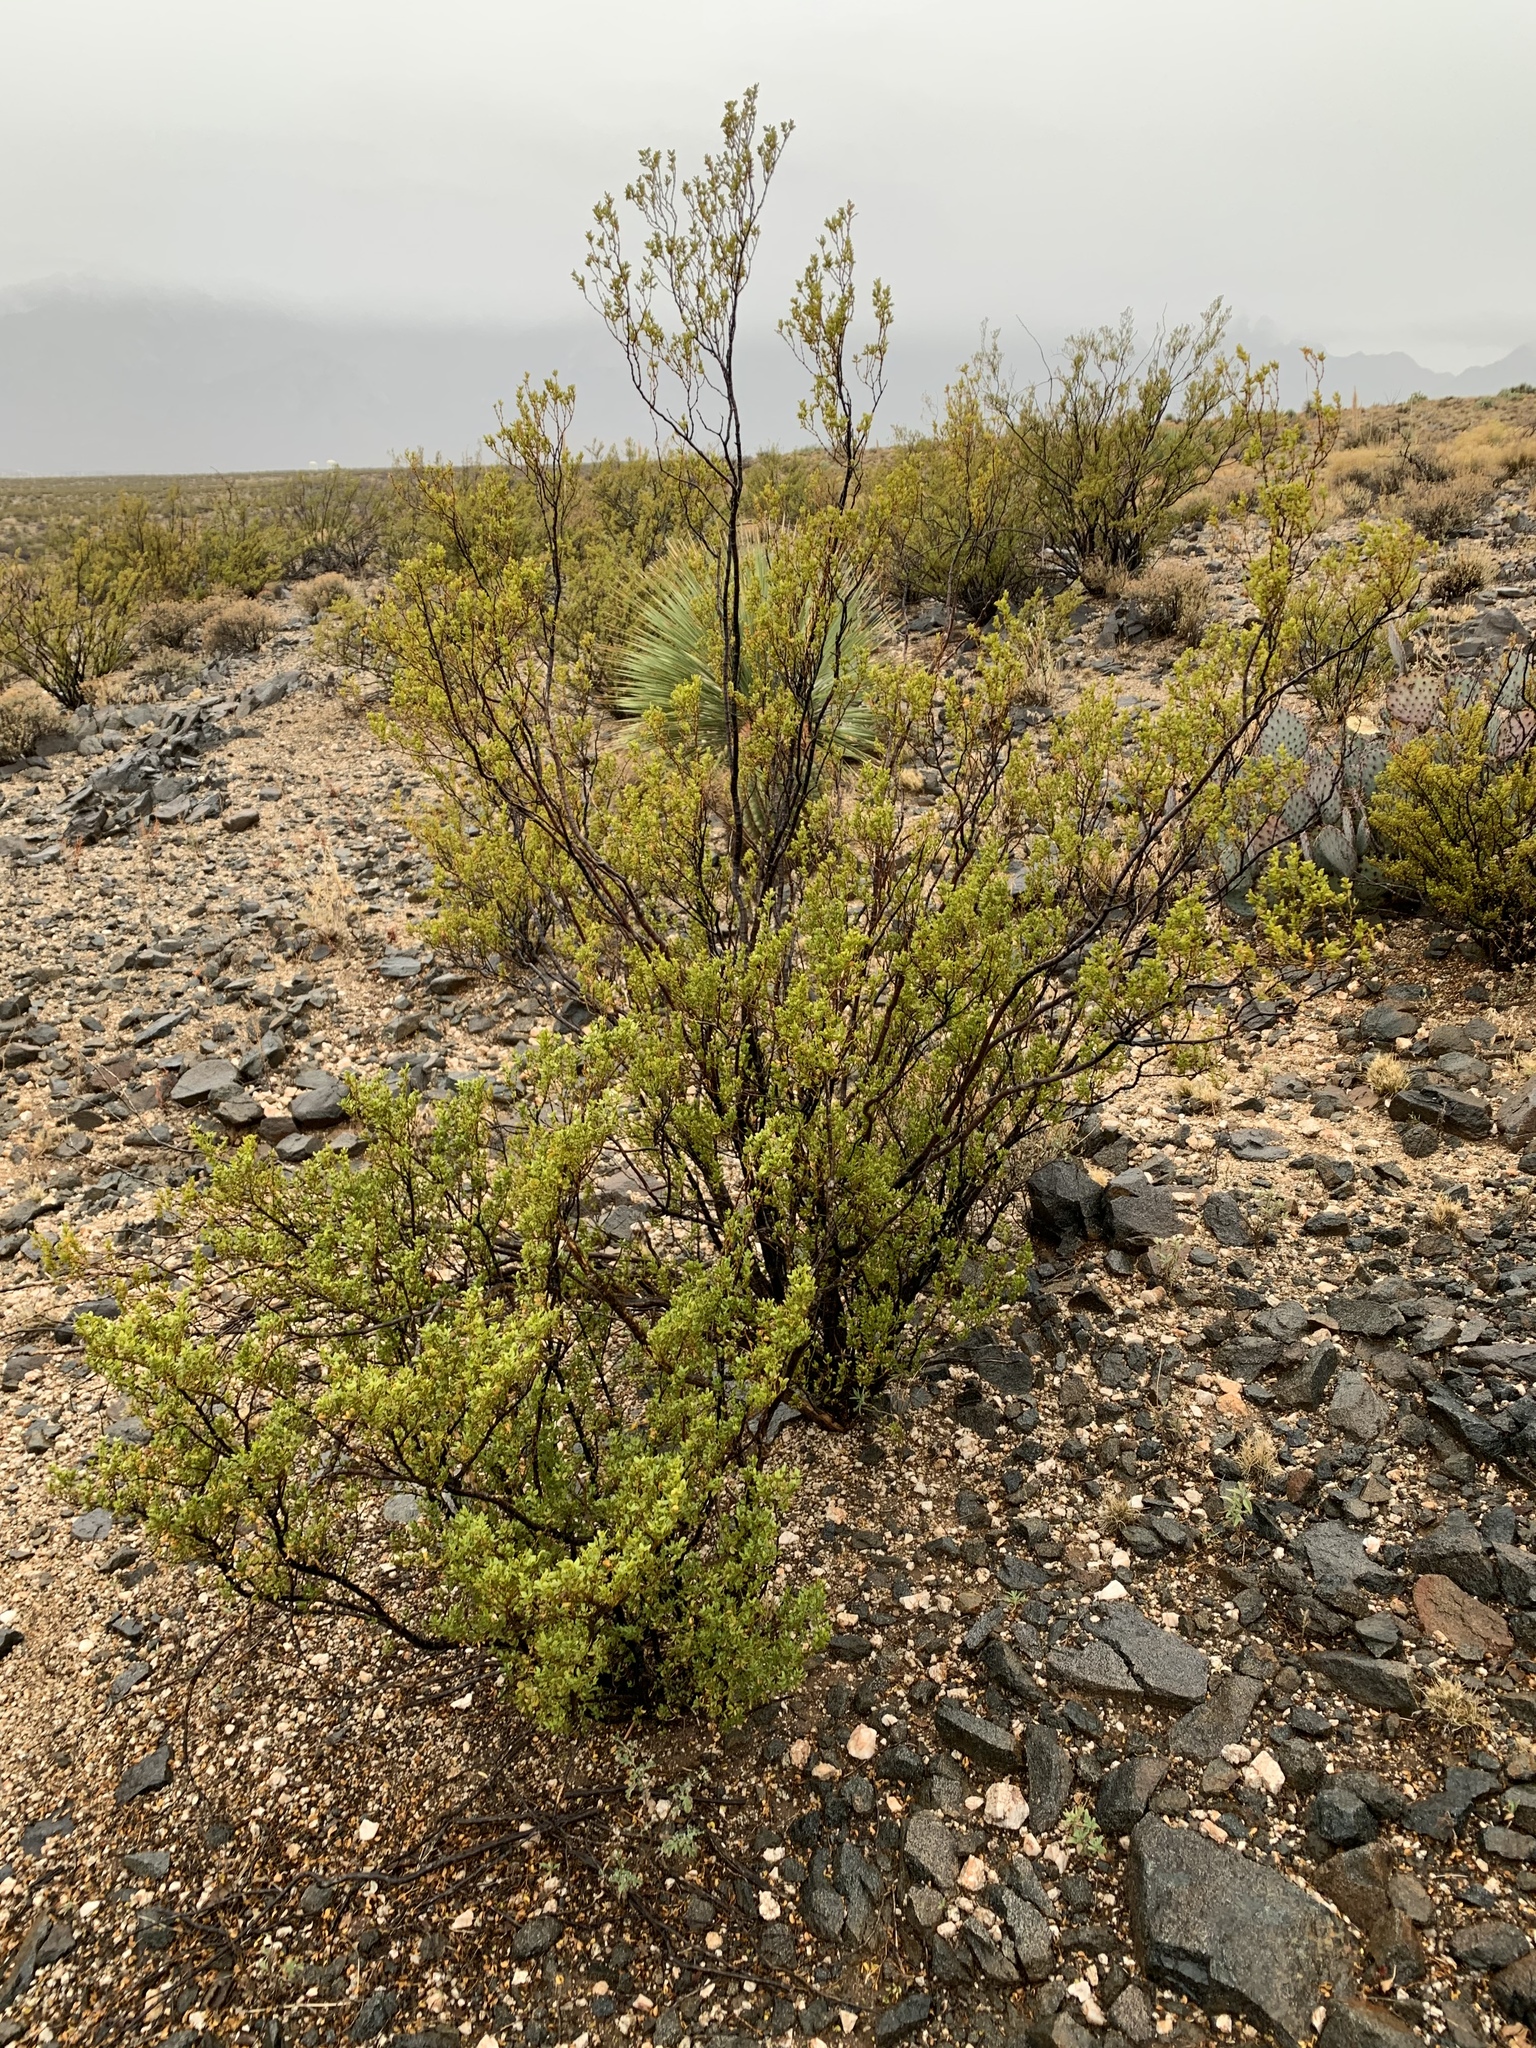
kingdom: Plantae
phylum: Tracheophyta
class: Magnoliopsida
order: Zygophyllales
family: Zygophyllaceae
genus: Larrea
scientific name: Larrea tridentata
